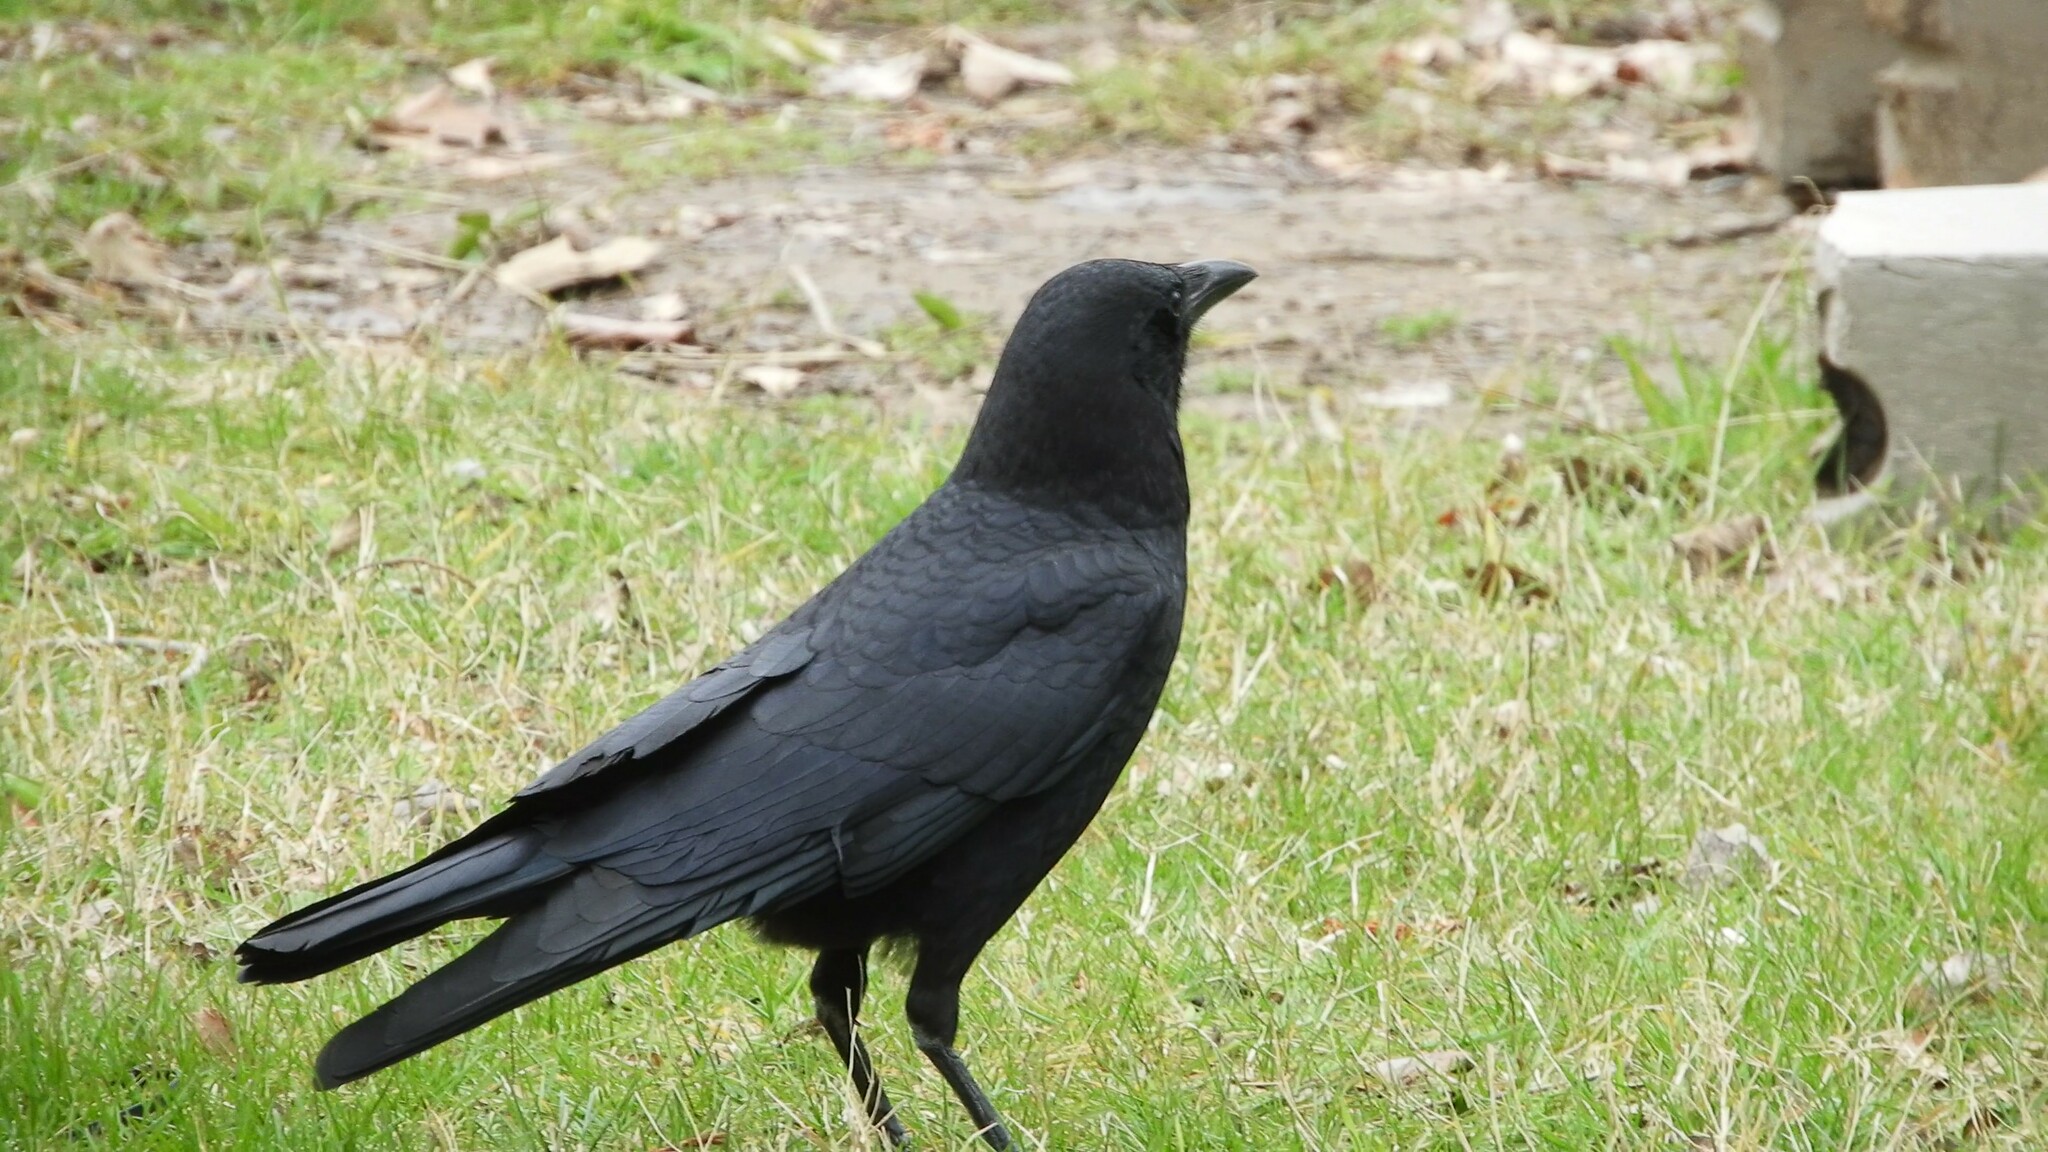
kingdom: Animalia
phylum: Chordata
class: Aves
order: Passeriformes
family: Corvidae
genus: Corvus
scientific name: Corvus brachyrhynchos
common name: American crow
